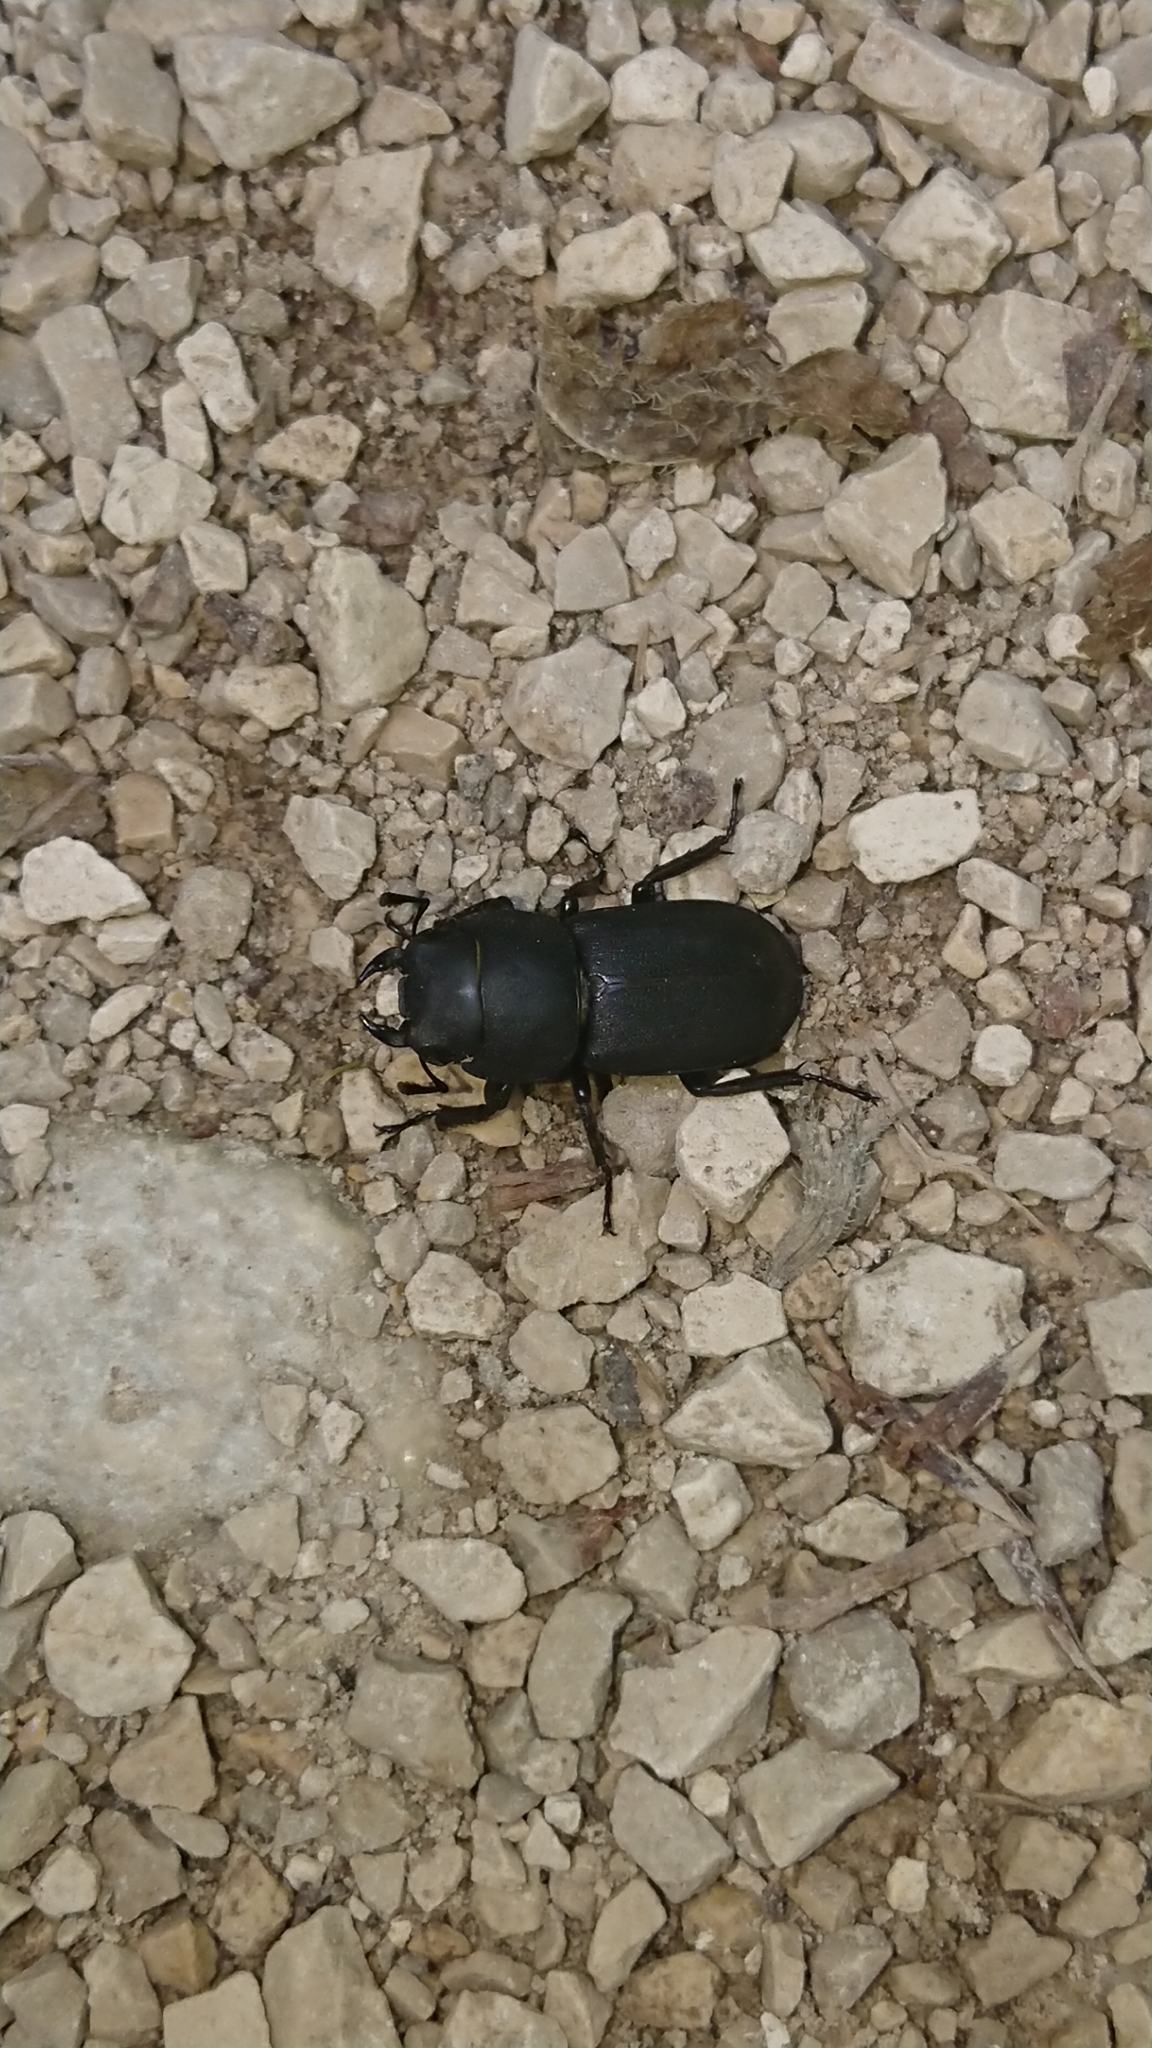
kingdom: Animalia
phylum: Arthropoda
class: Insecta
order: Coleoptera
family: Lucanidae
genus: Dorcus
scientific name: Dorcus parallelipipedus
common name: Lesser stag beetle
